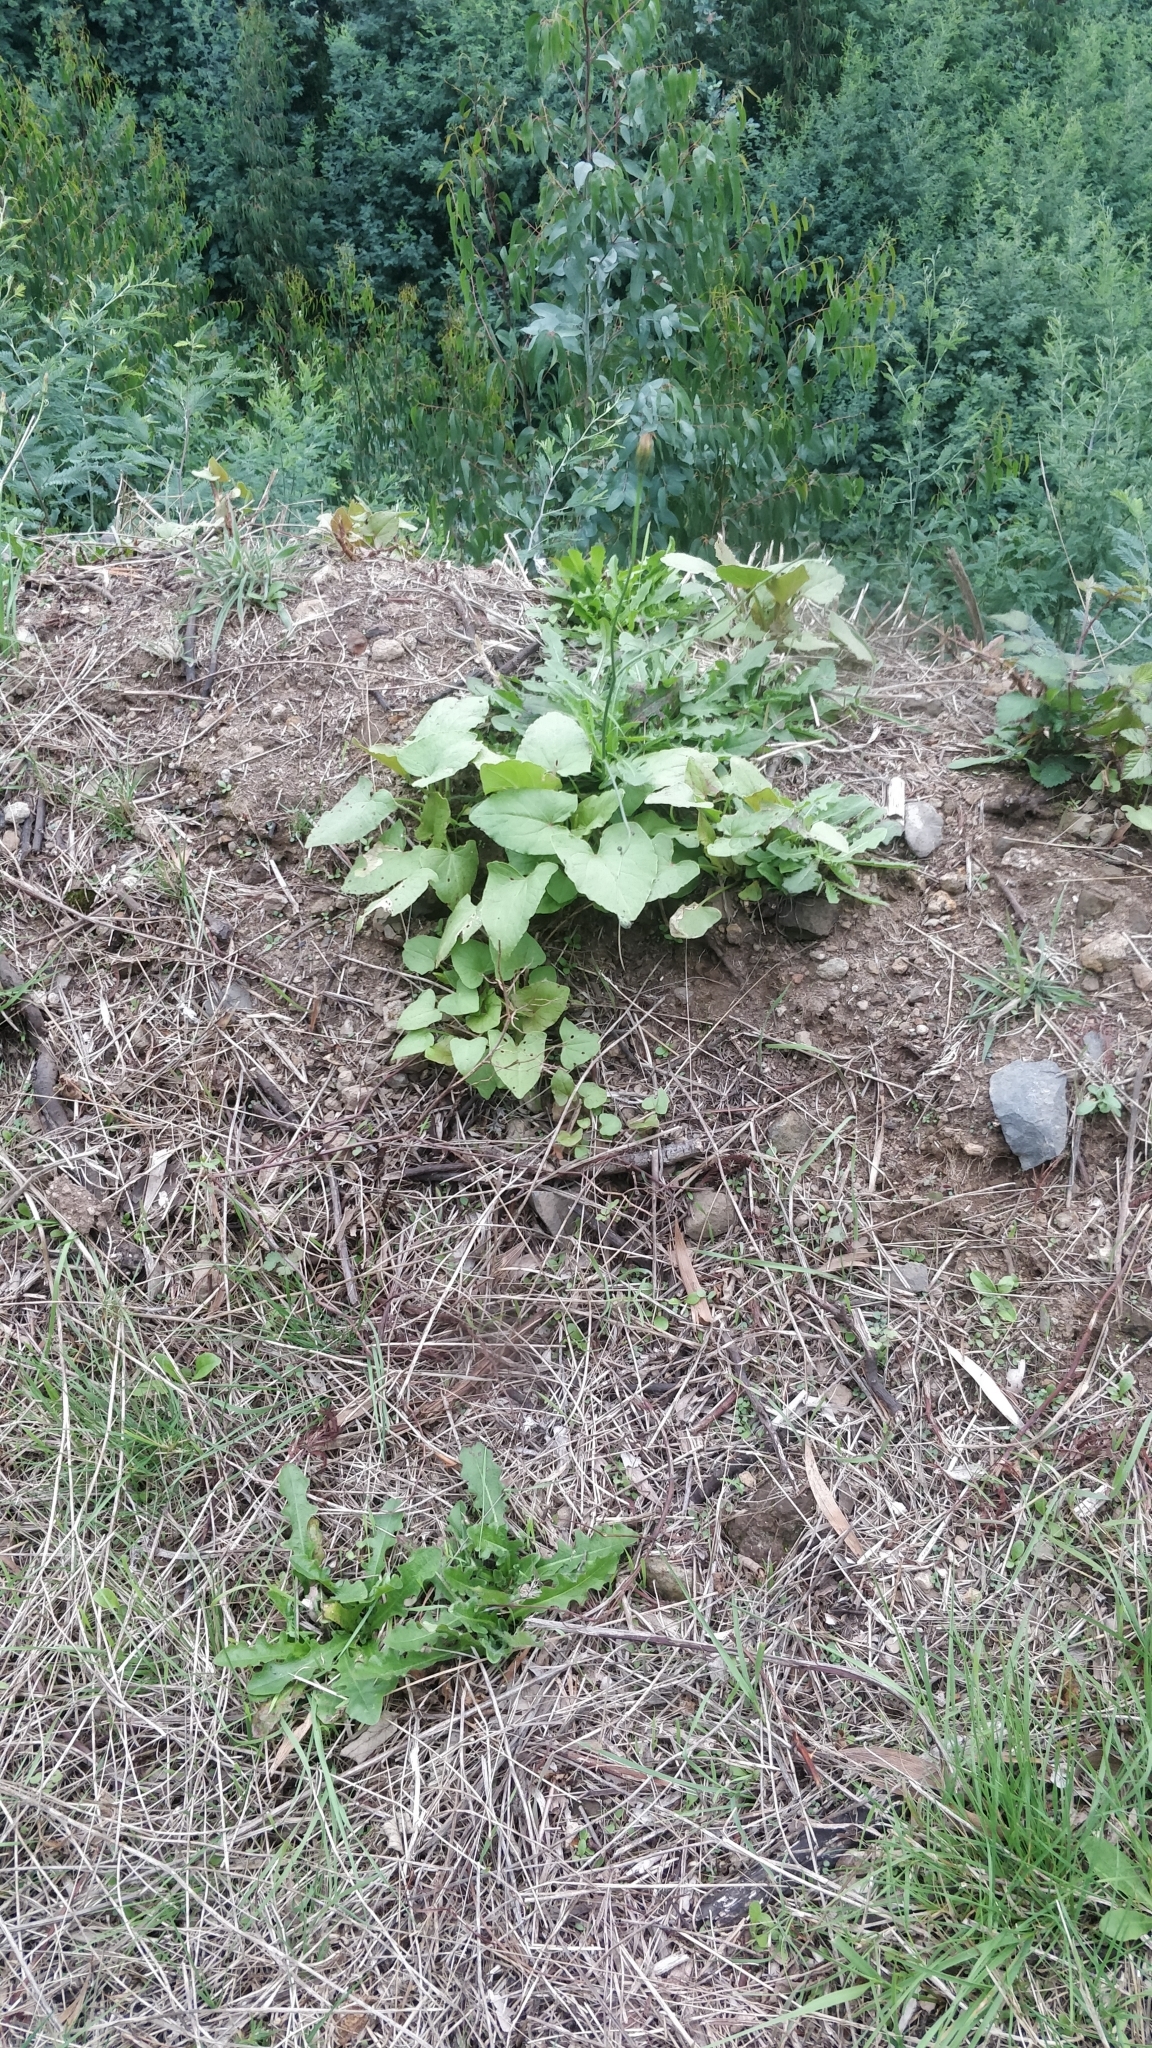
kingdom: Plantae
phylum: Tracheophyta
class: Magnoliopsida
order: Caryophyllales
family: Polygonaceae
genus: Rumex
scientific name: Rumex maderensis
